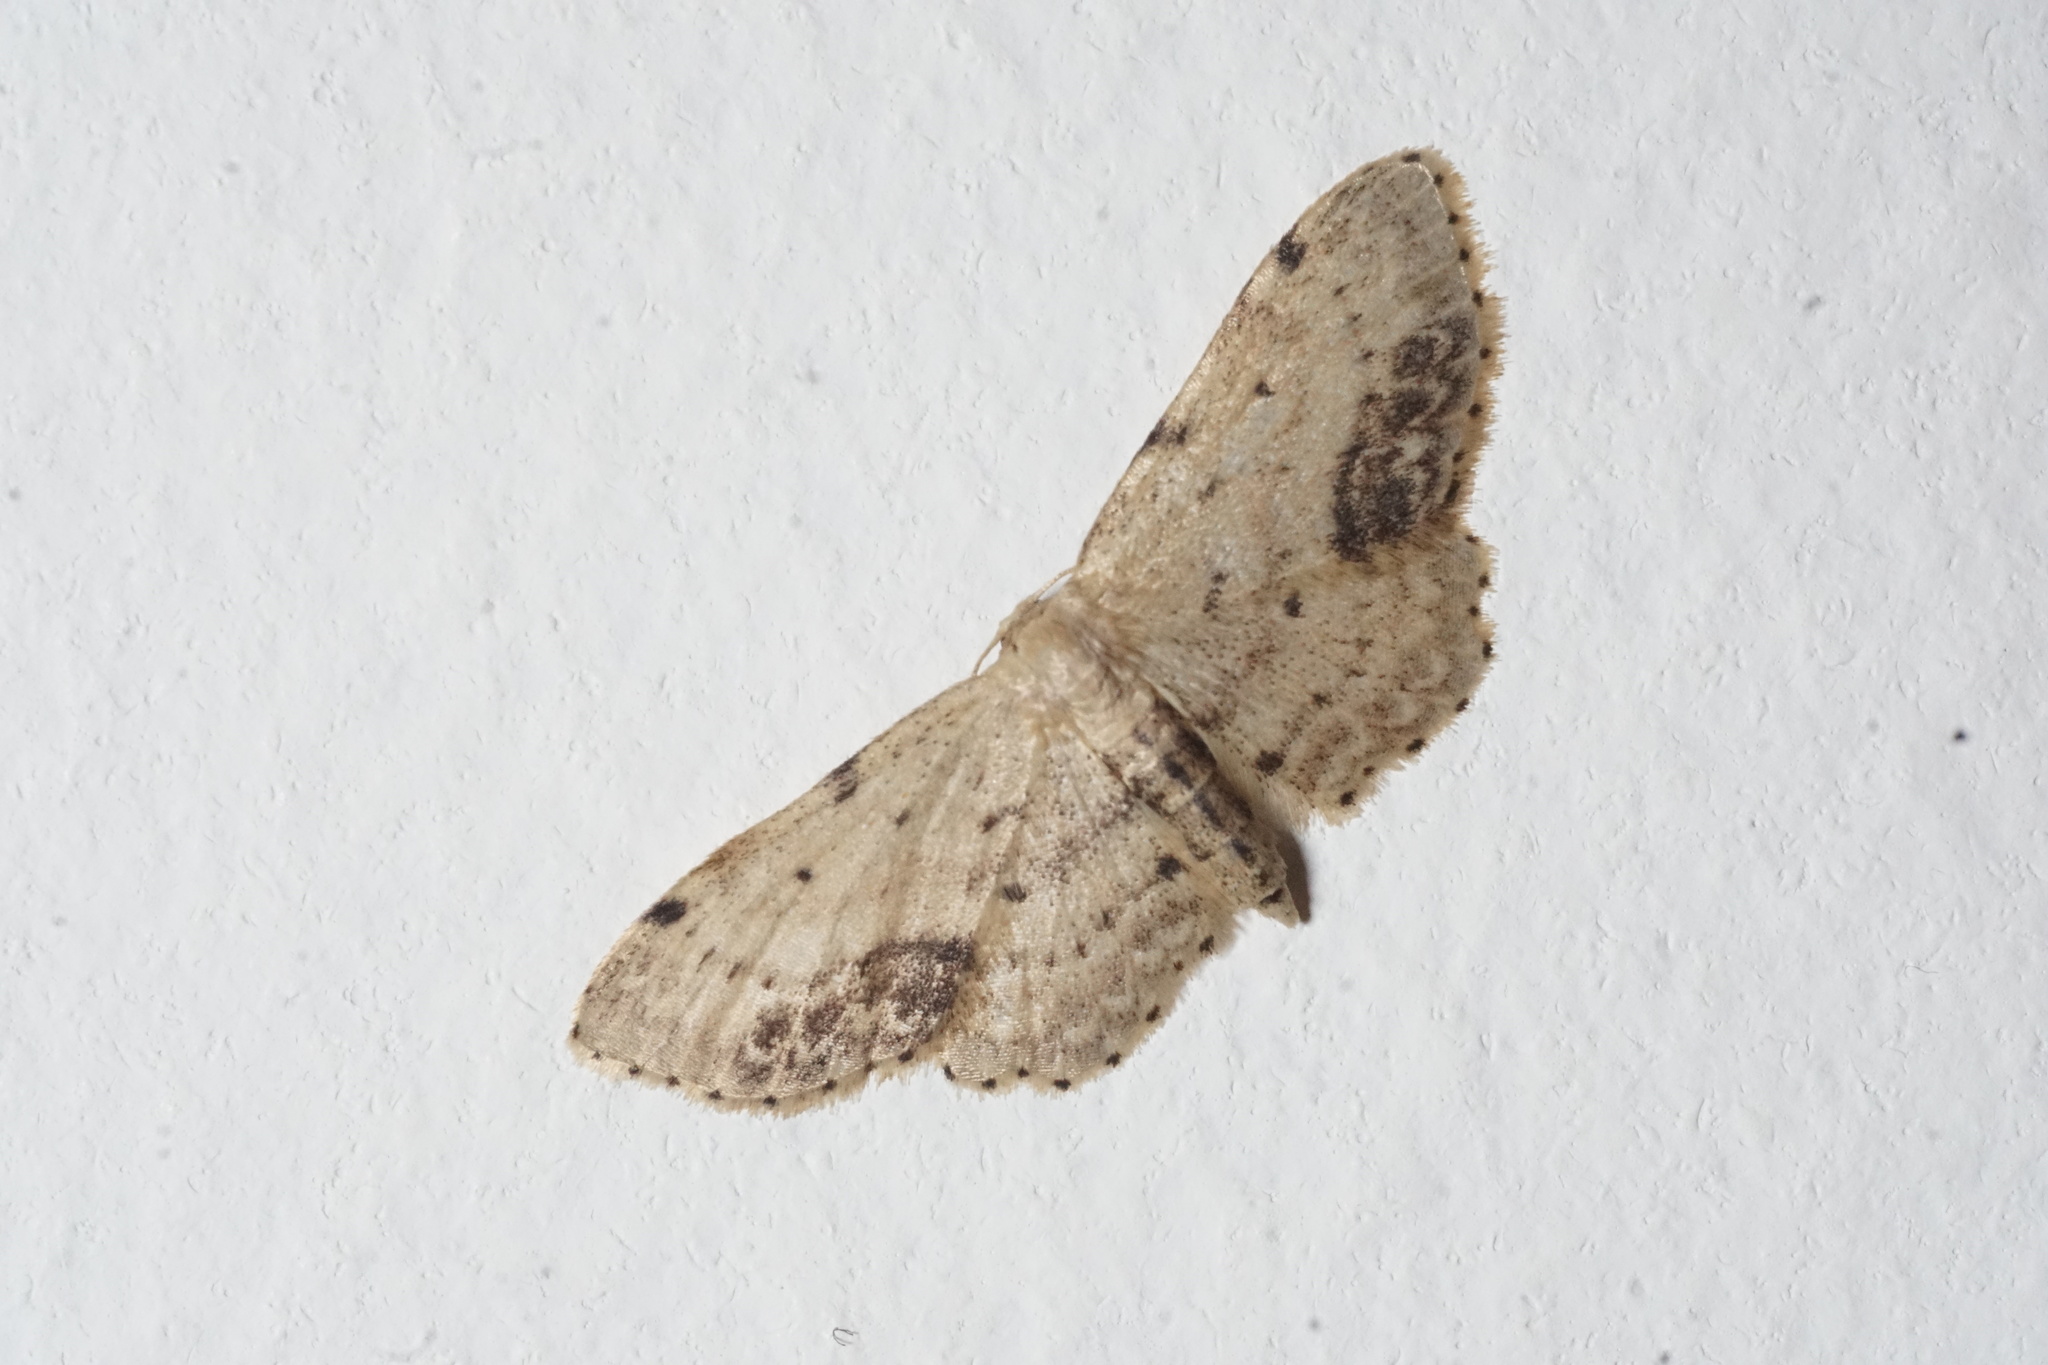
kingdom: Animalia
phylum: Arthropoda
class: Insecta
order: Lepidoptera
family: Geometridae
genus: Idaea
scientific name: Idaea dimidiata
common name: Single-dotted wave
